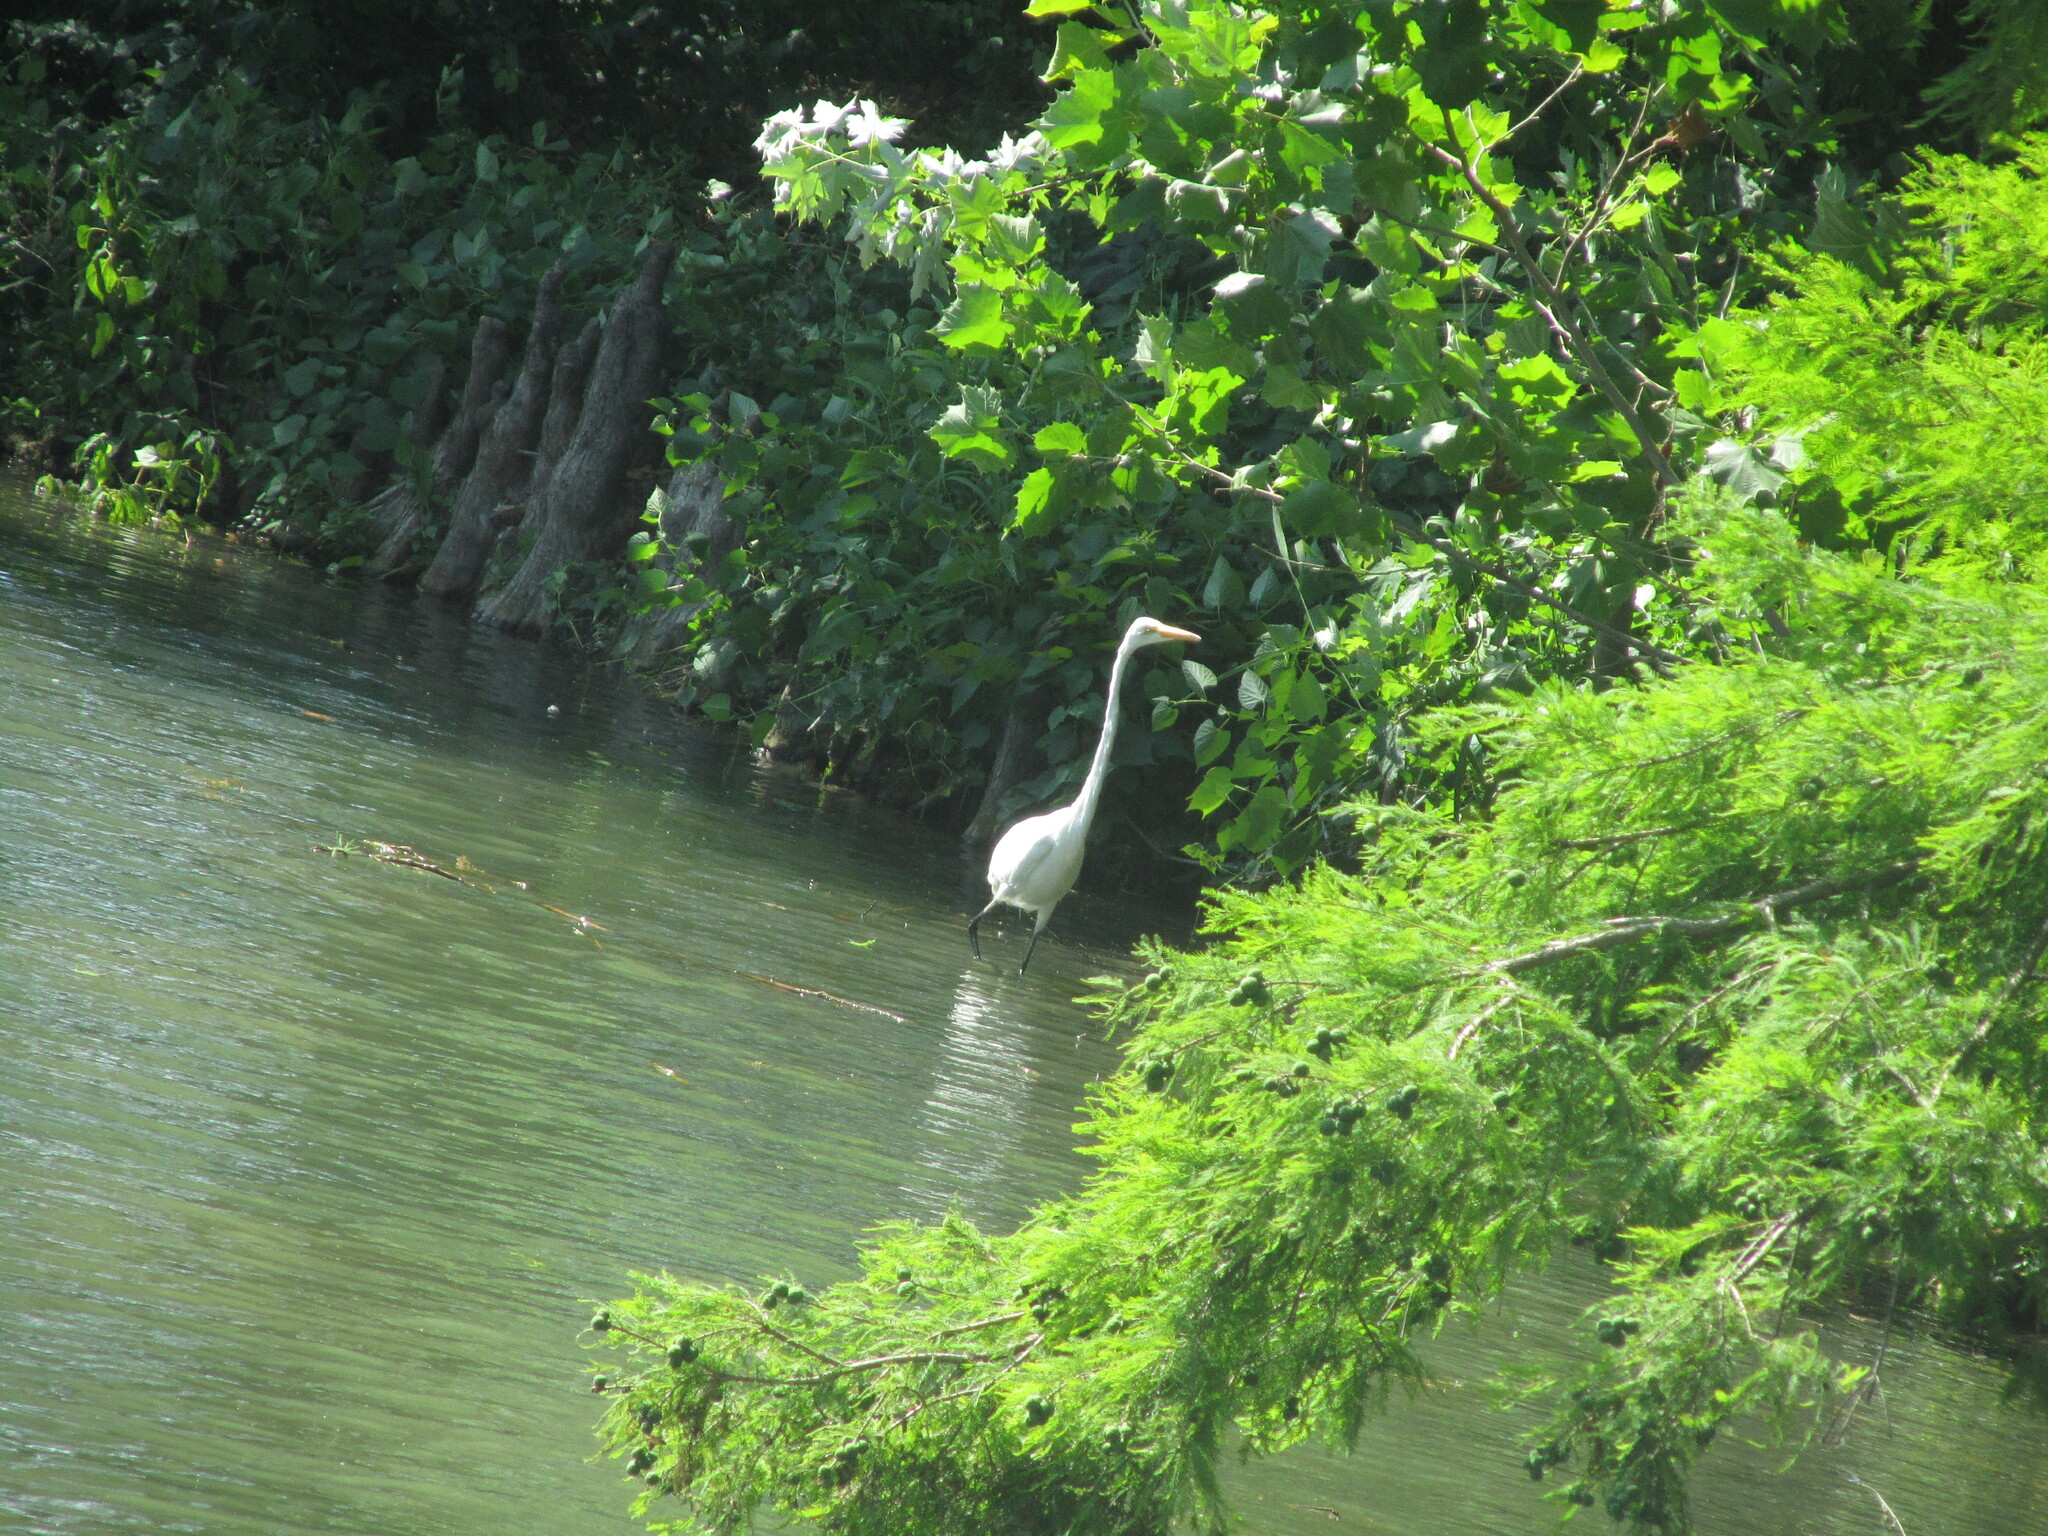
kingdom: Animalia
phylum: Chordata
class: Aves
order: Pelecaniformes
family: Ardeidae
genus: Ardea
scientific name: Ardea alba
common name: Great egret
